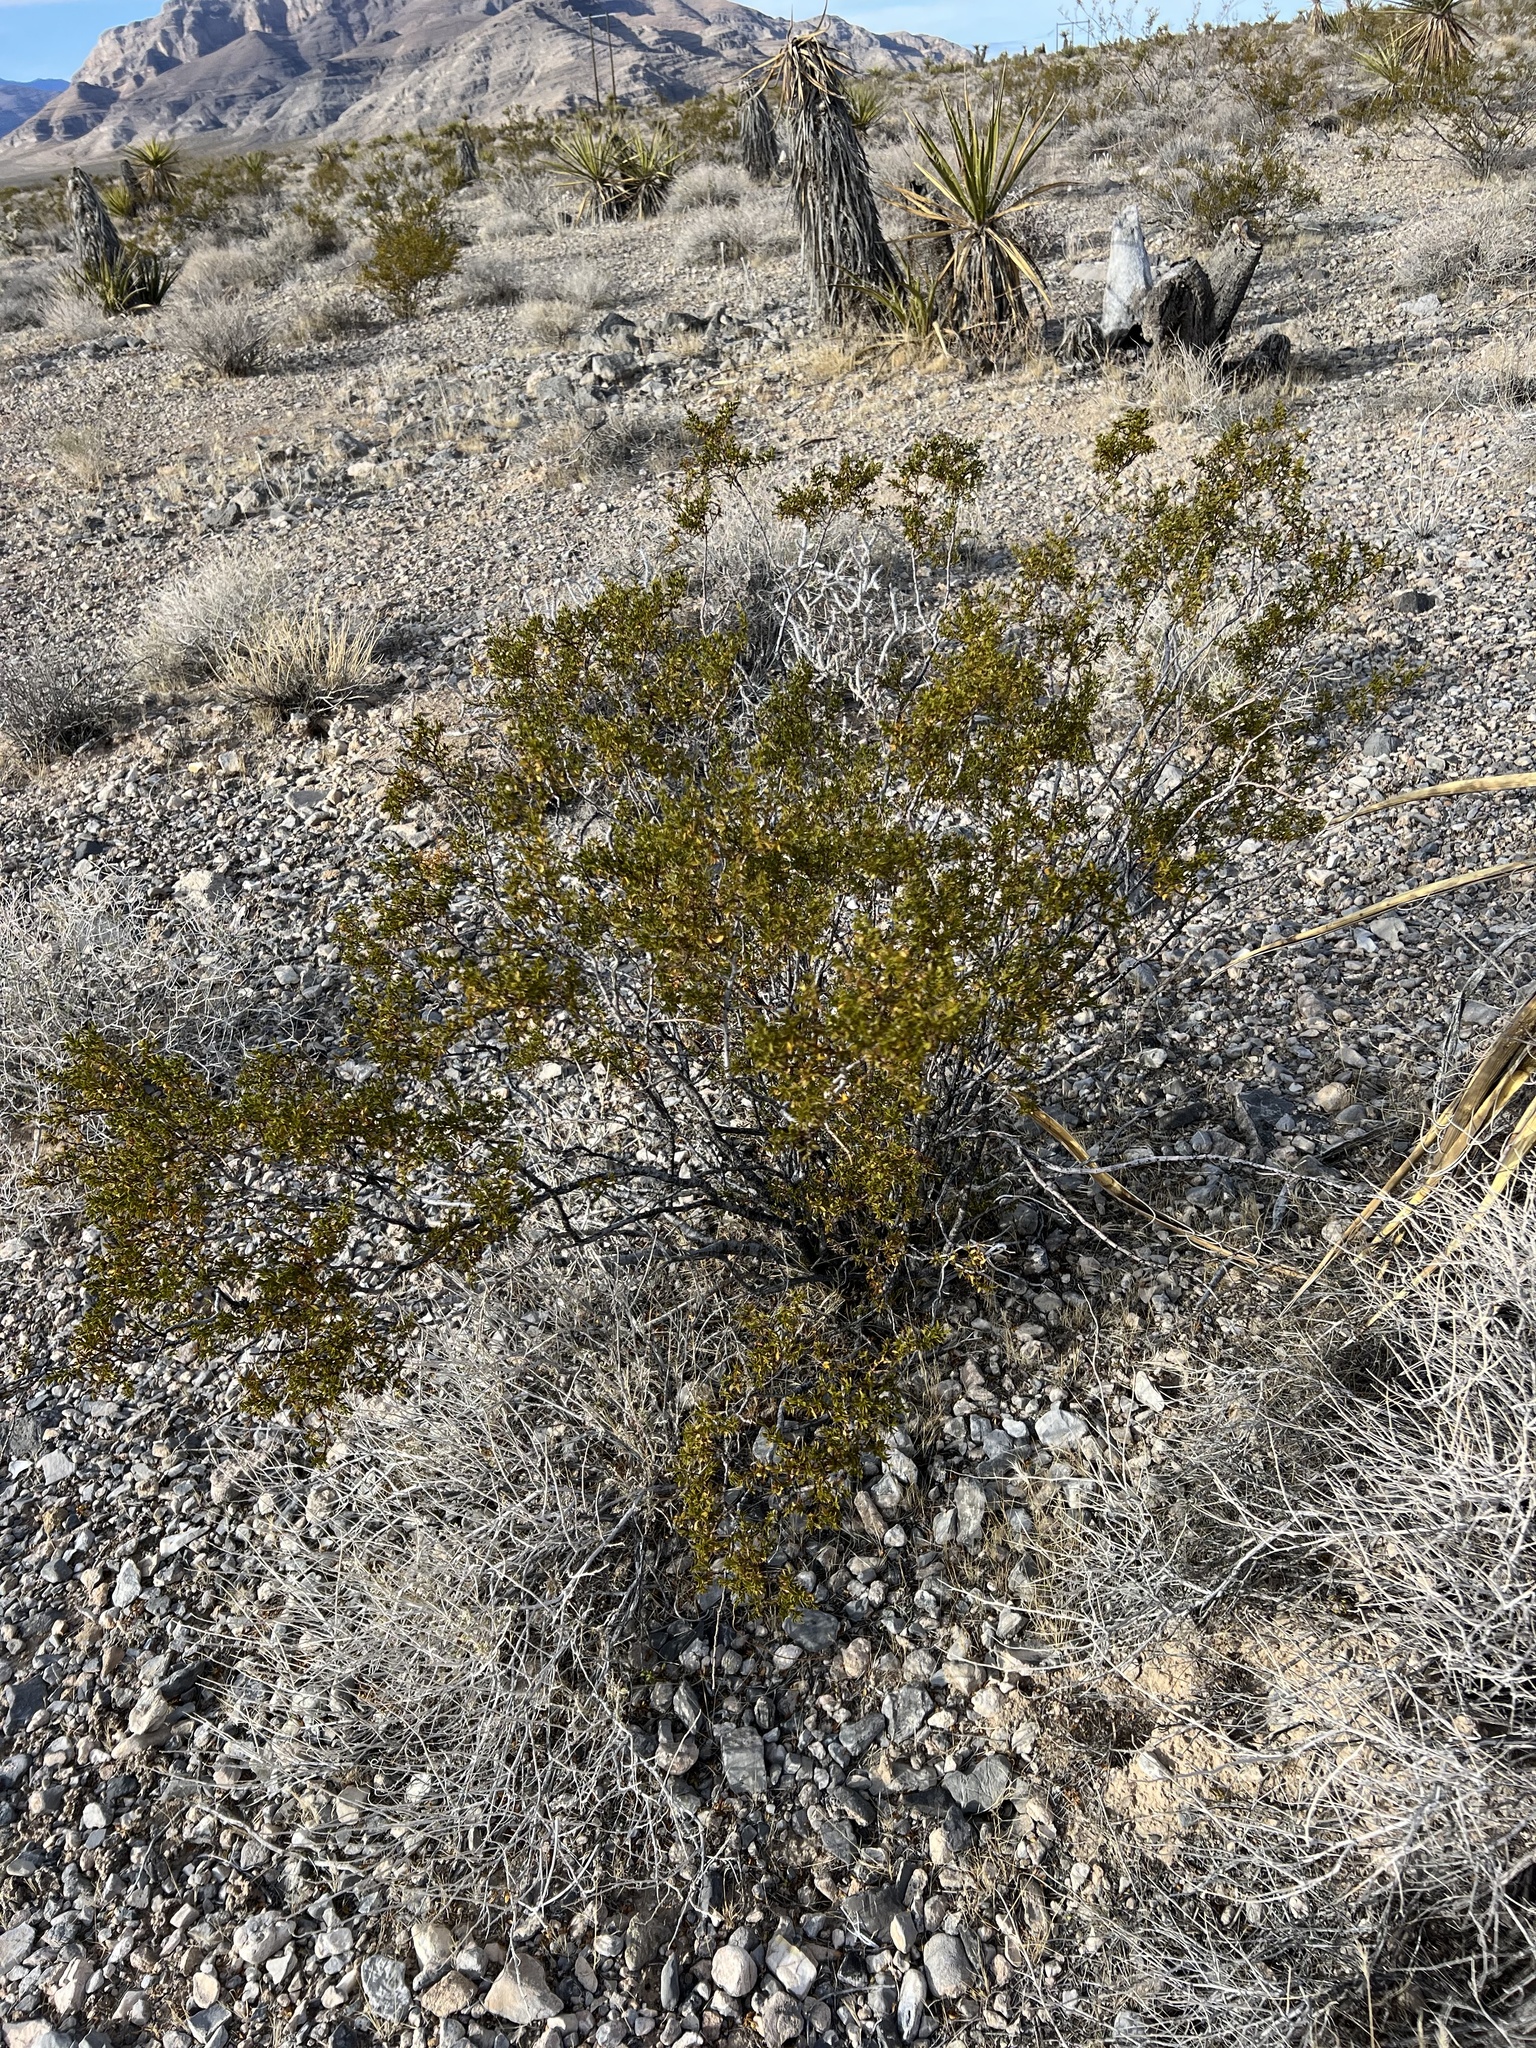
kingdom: Plantae
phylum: Tracheophyta
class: Magnoliopsida
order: Zygophyllales
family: Zygophyllaceae
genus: Larrea
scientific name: Larrea tridentata
